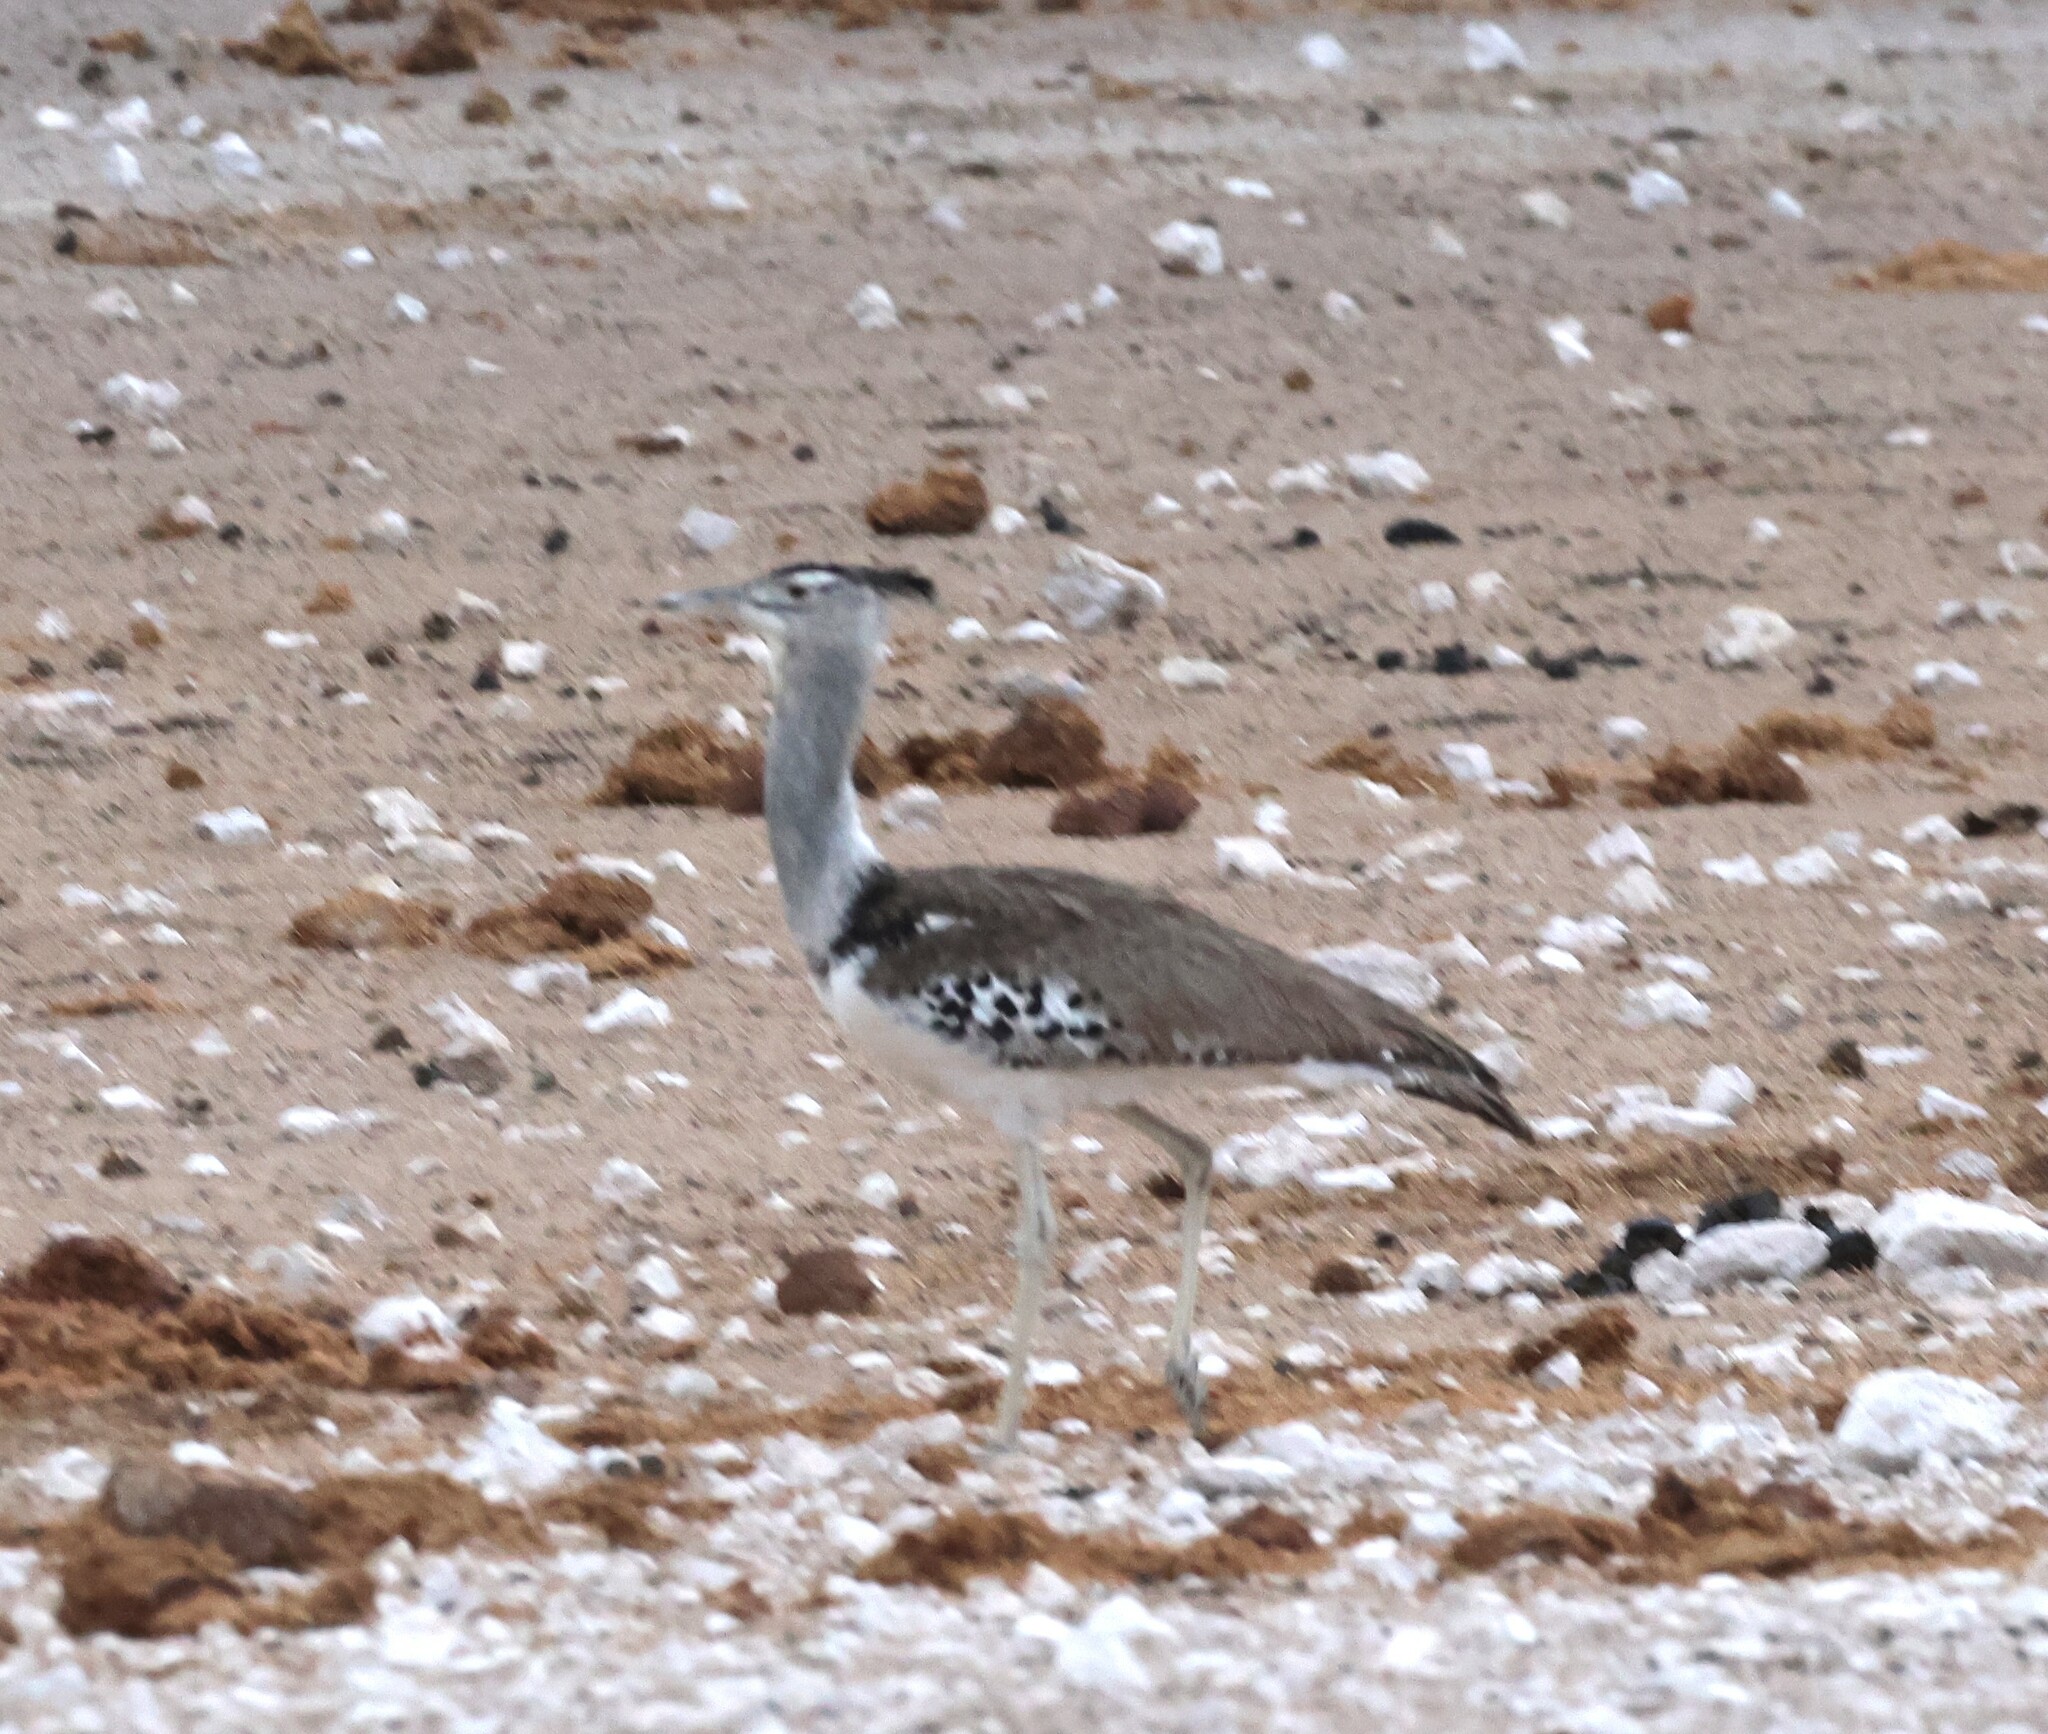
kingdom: Animalia
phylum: Chordata
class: Aves
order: Otidiformes
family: Otididae
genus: Ardeotis
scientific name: Ardeotis kori
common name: Kori bustard
